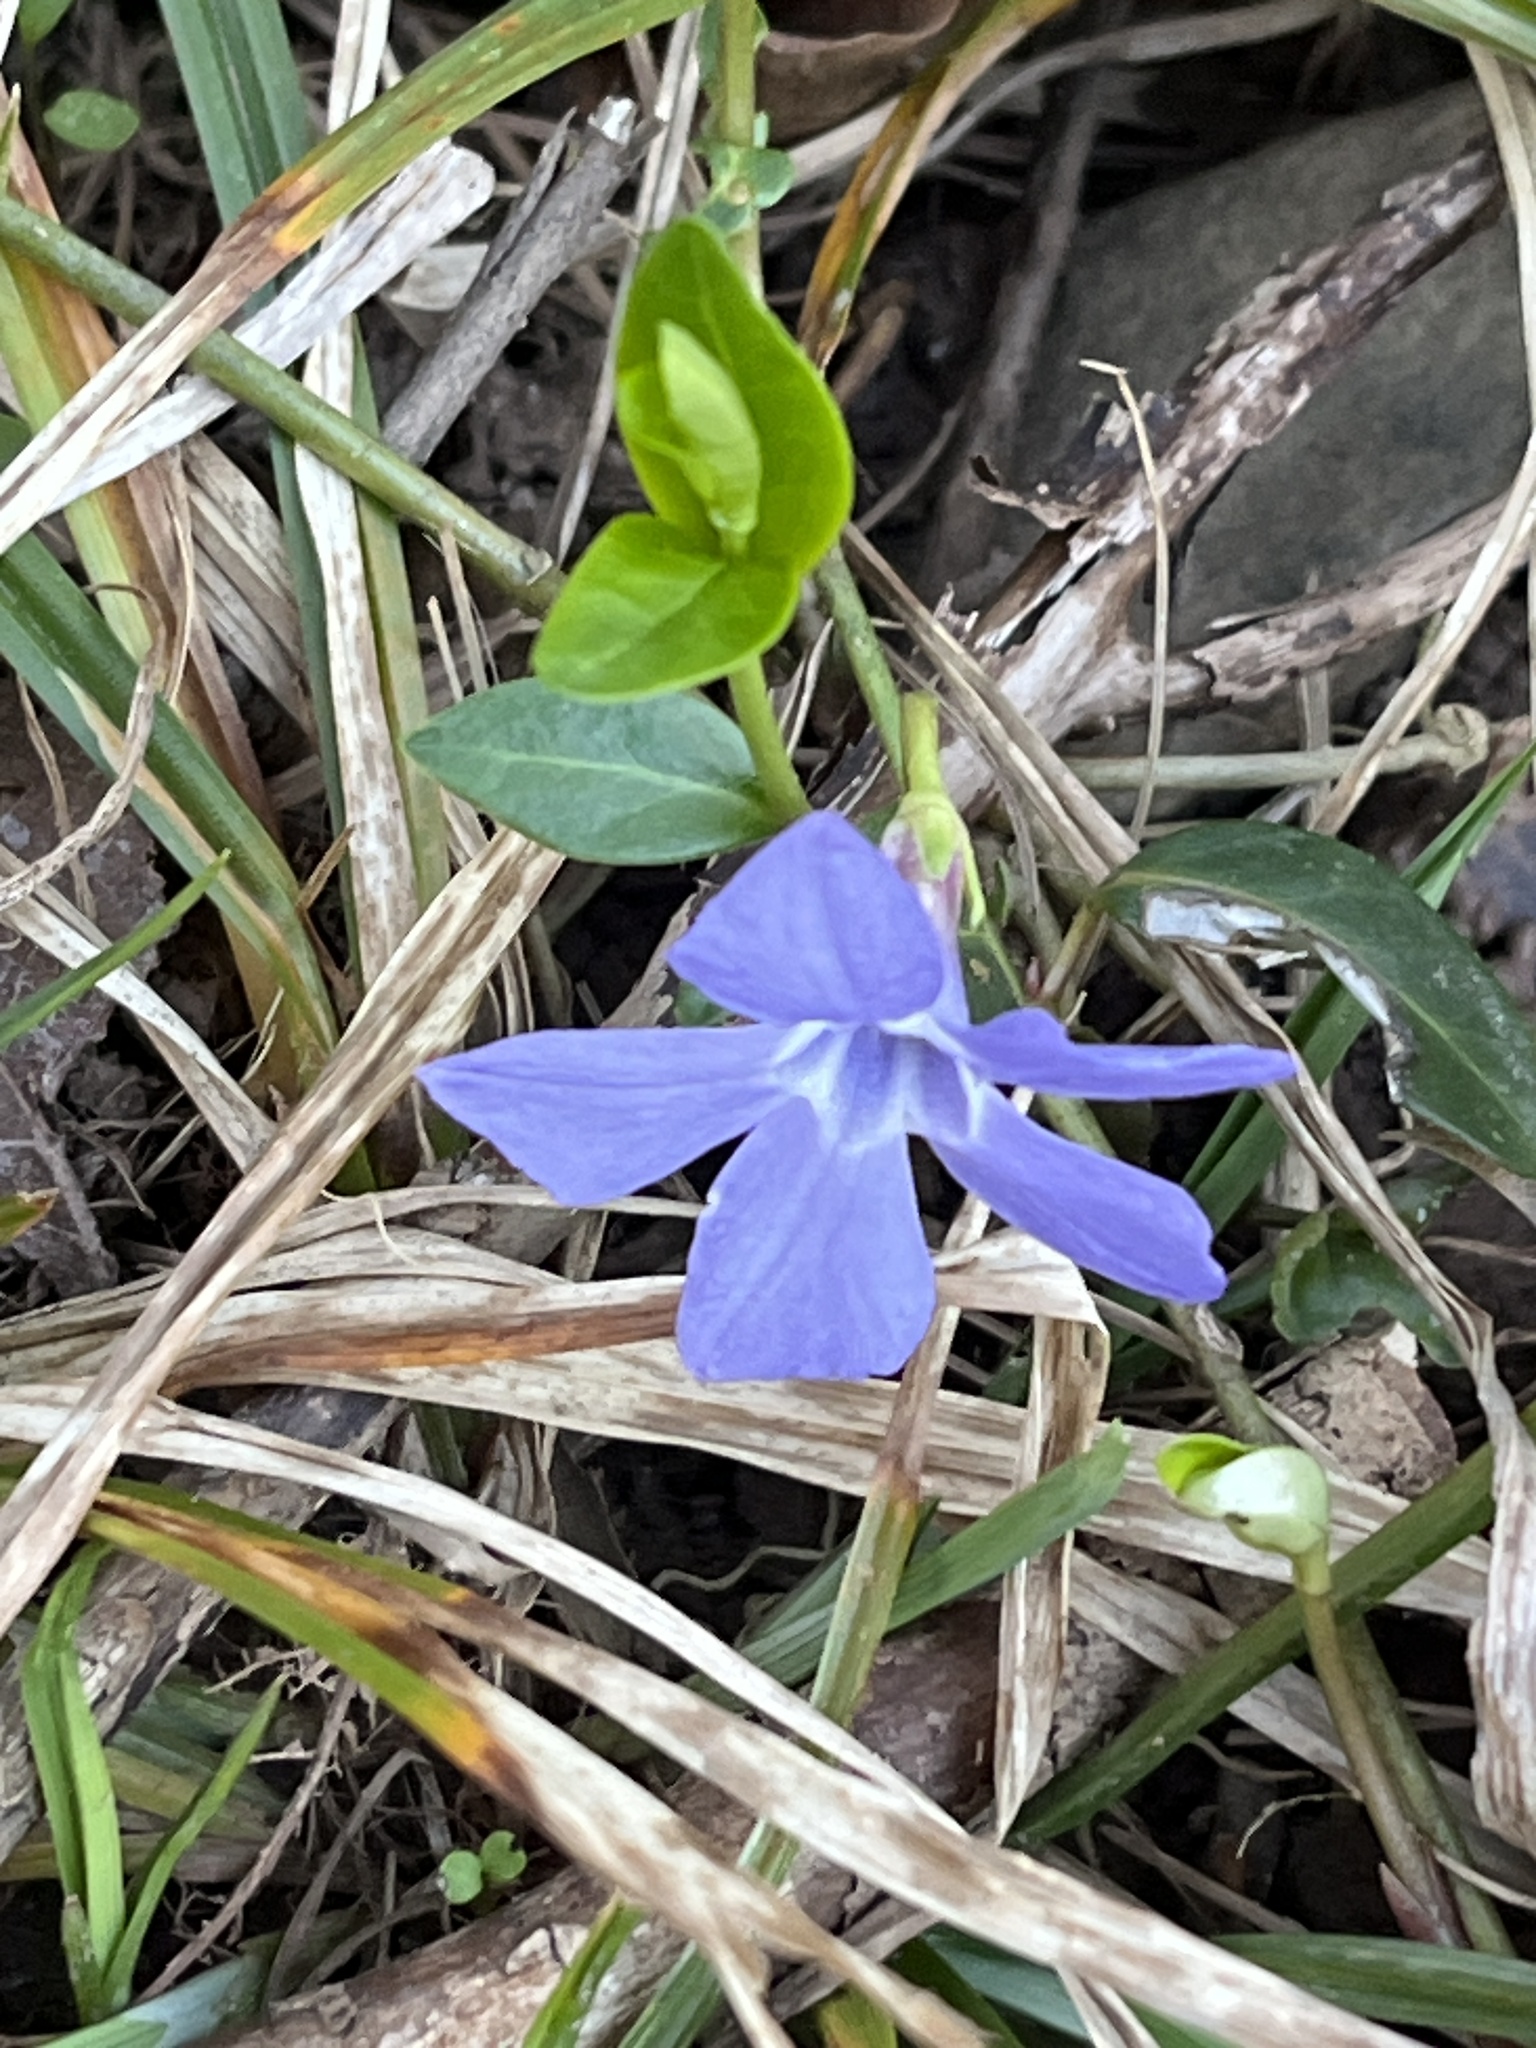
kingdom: Plantae
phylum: Tracheophyta
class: Magnoliopsida
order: Gentianales
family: Apocynaceae
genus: Vinca
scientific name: Vinca minor
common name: Lesser periwinkle
